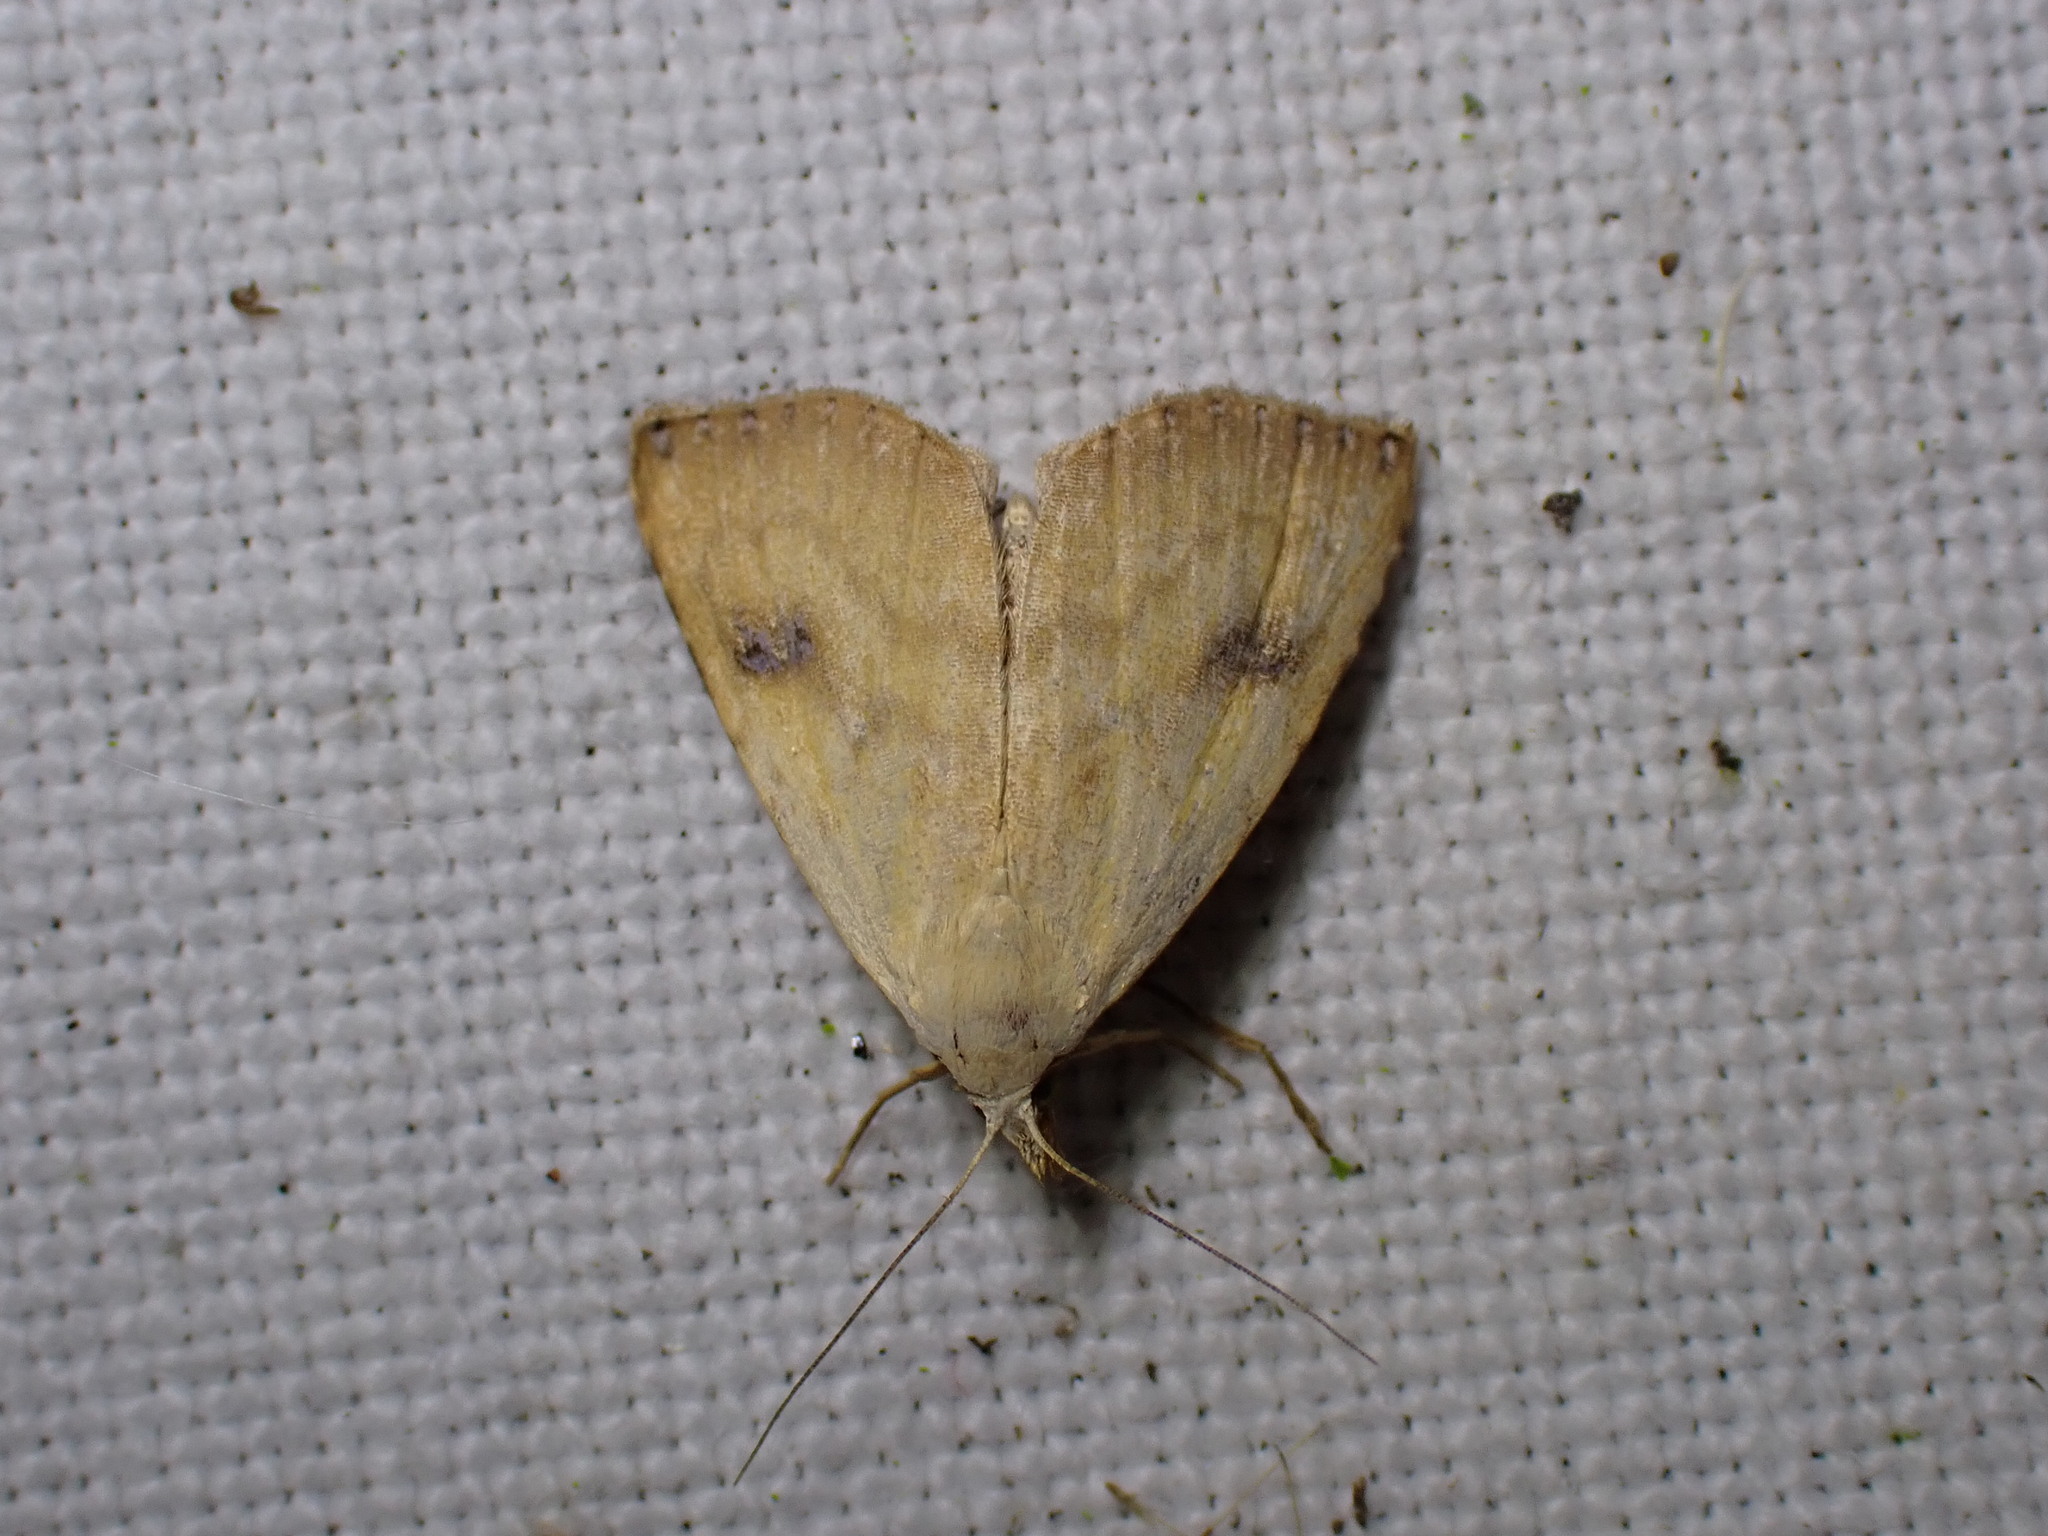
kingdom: Animalia
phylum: Arthropoda
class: Insecta
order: Lepidoptera
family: Erebidae
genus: Rivula
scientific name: Rivula sericealis
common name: Straw dot
